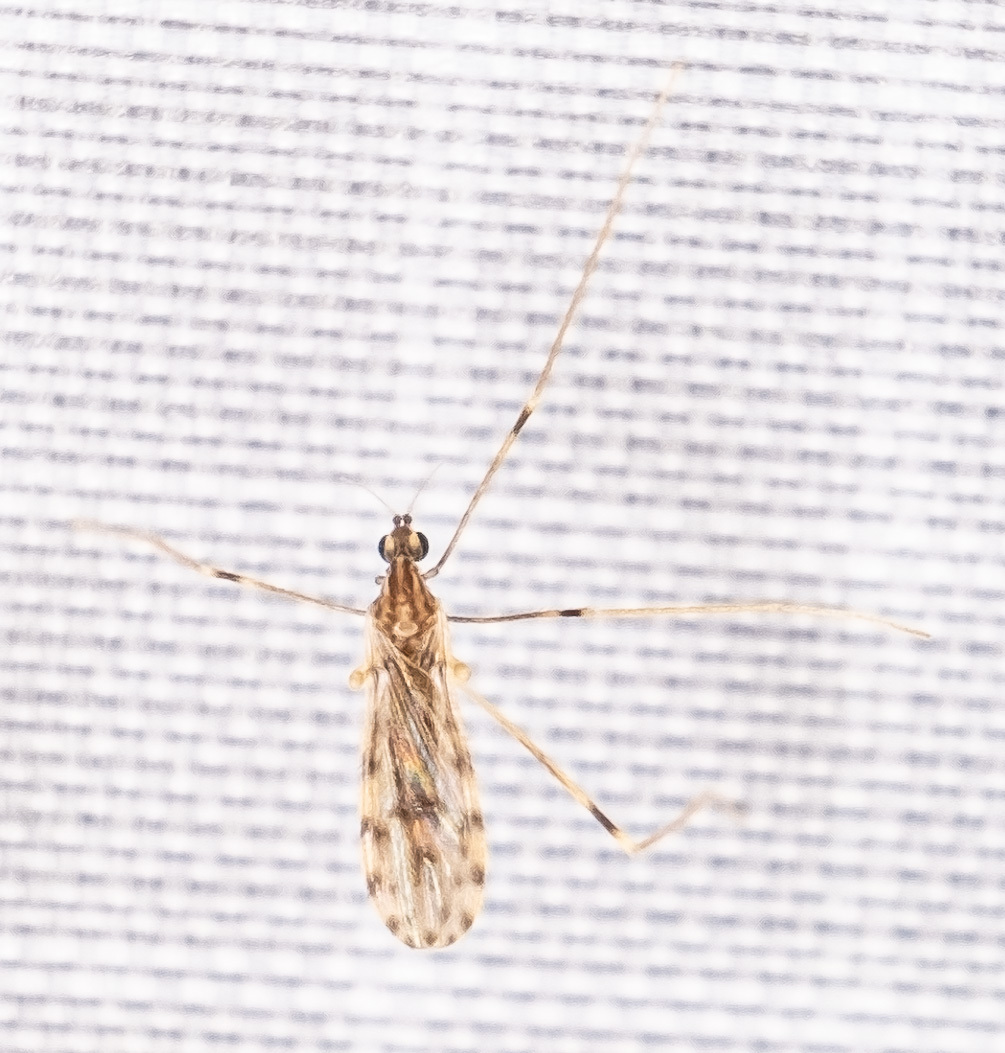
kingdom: Animalia
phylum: Arthropoda
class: Insecta
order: Diptera
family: Limoniidae
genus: Erioptera
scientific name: Erioptera parva
